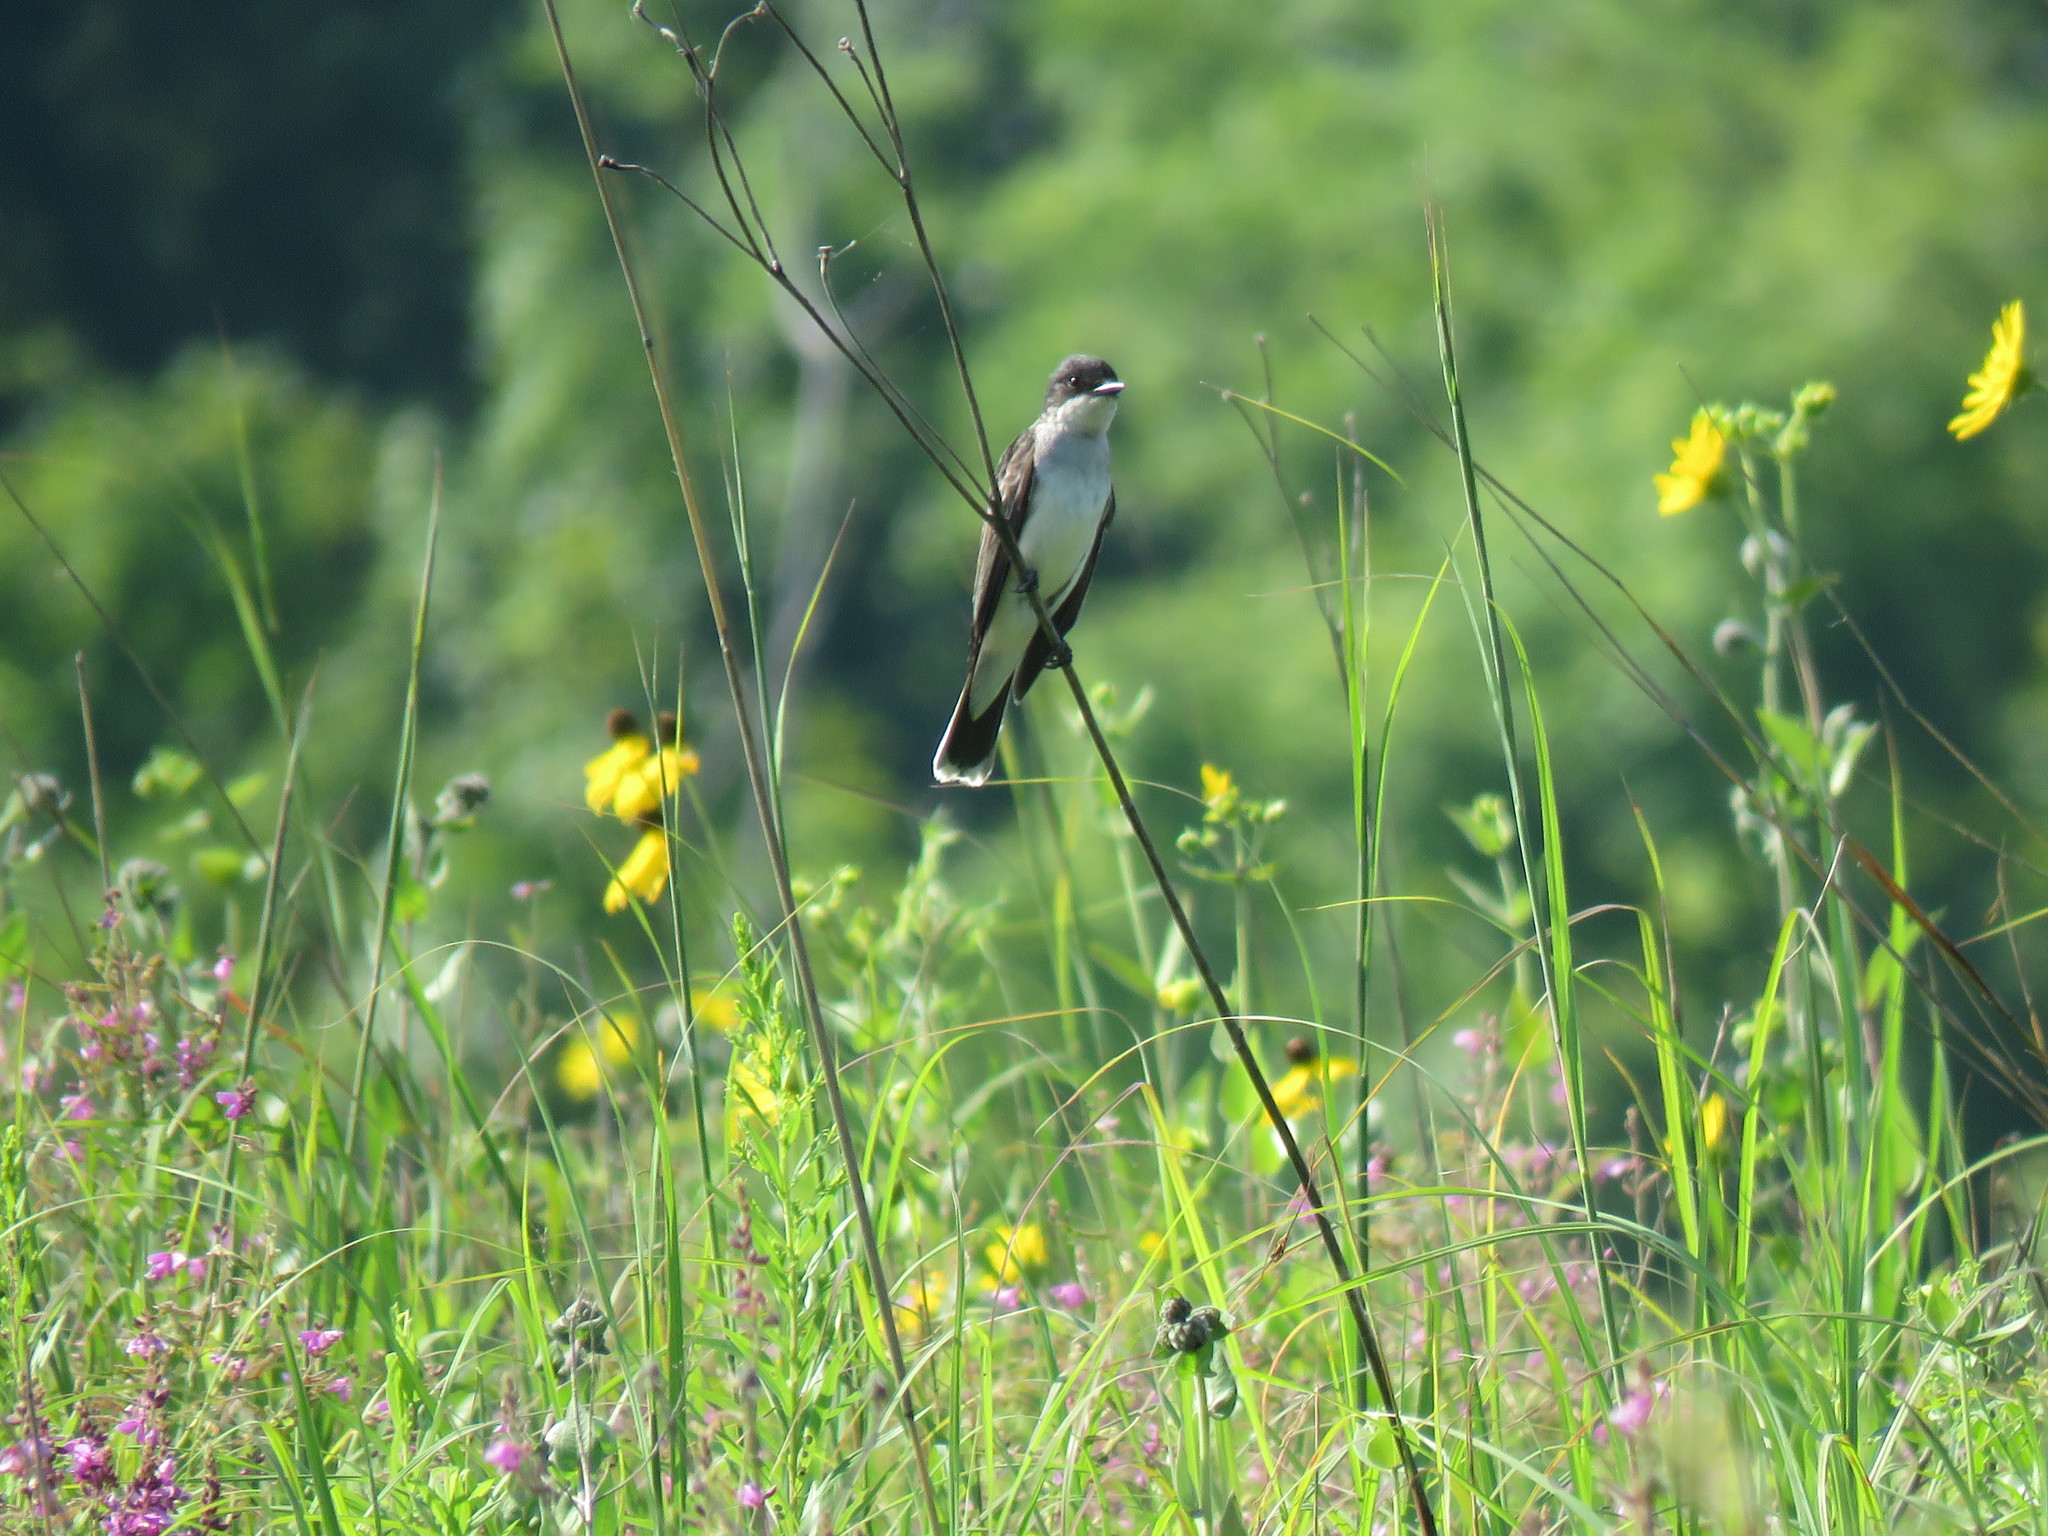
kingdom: Animalia
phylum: Chordata
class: Aves
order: Passeriformes
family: Tyrannidae
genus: Tyrannus
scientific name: Tyrannus tyrannus
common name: Eastern kingbird
